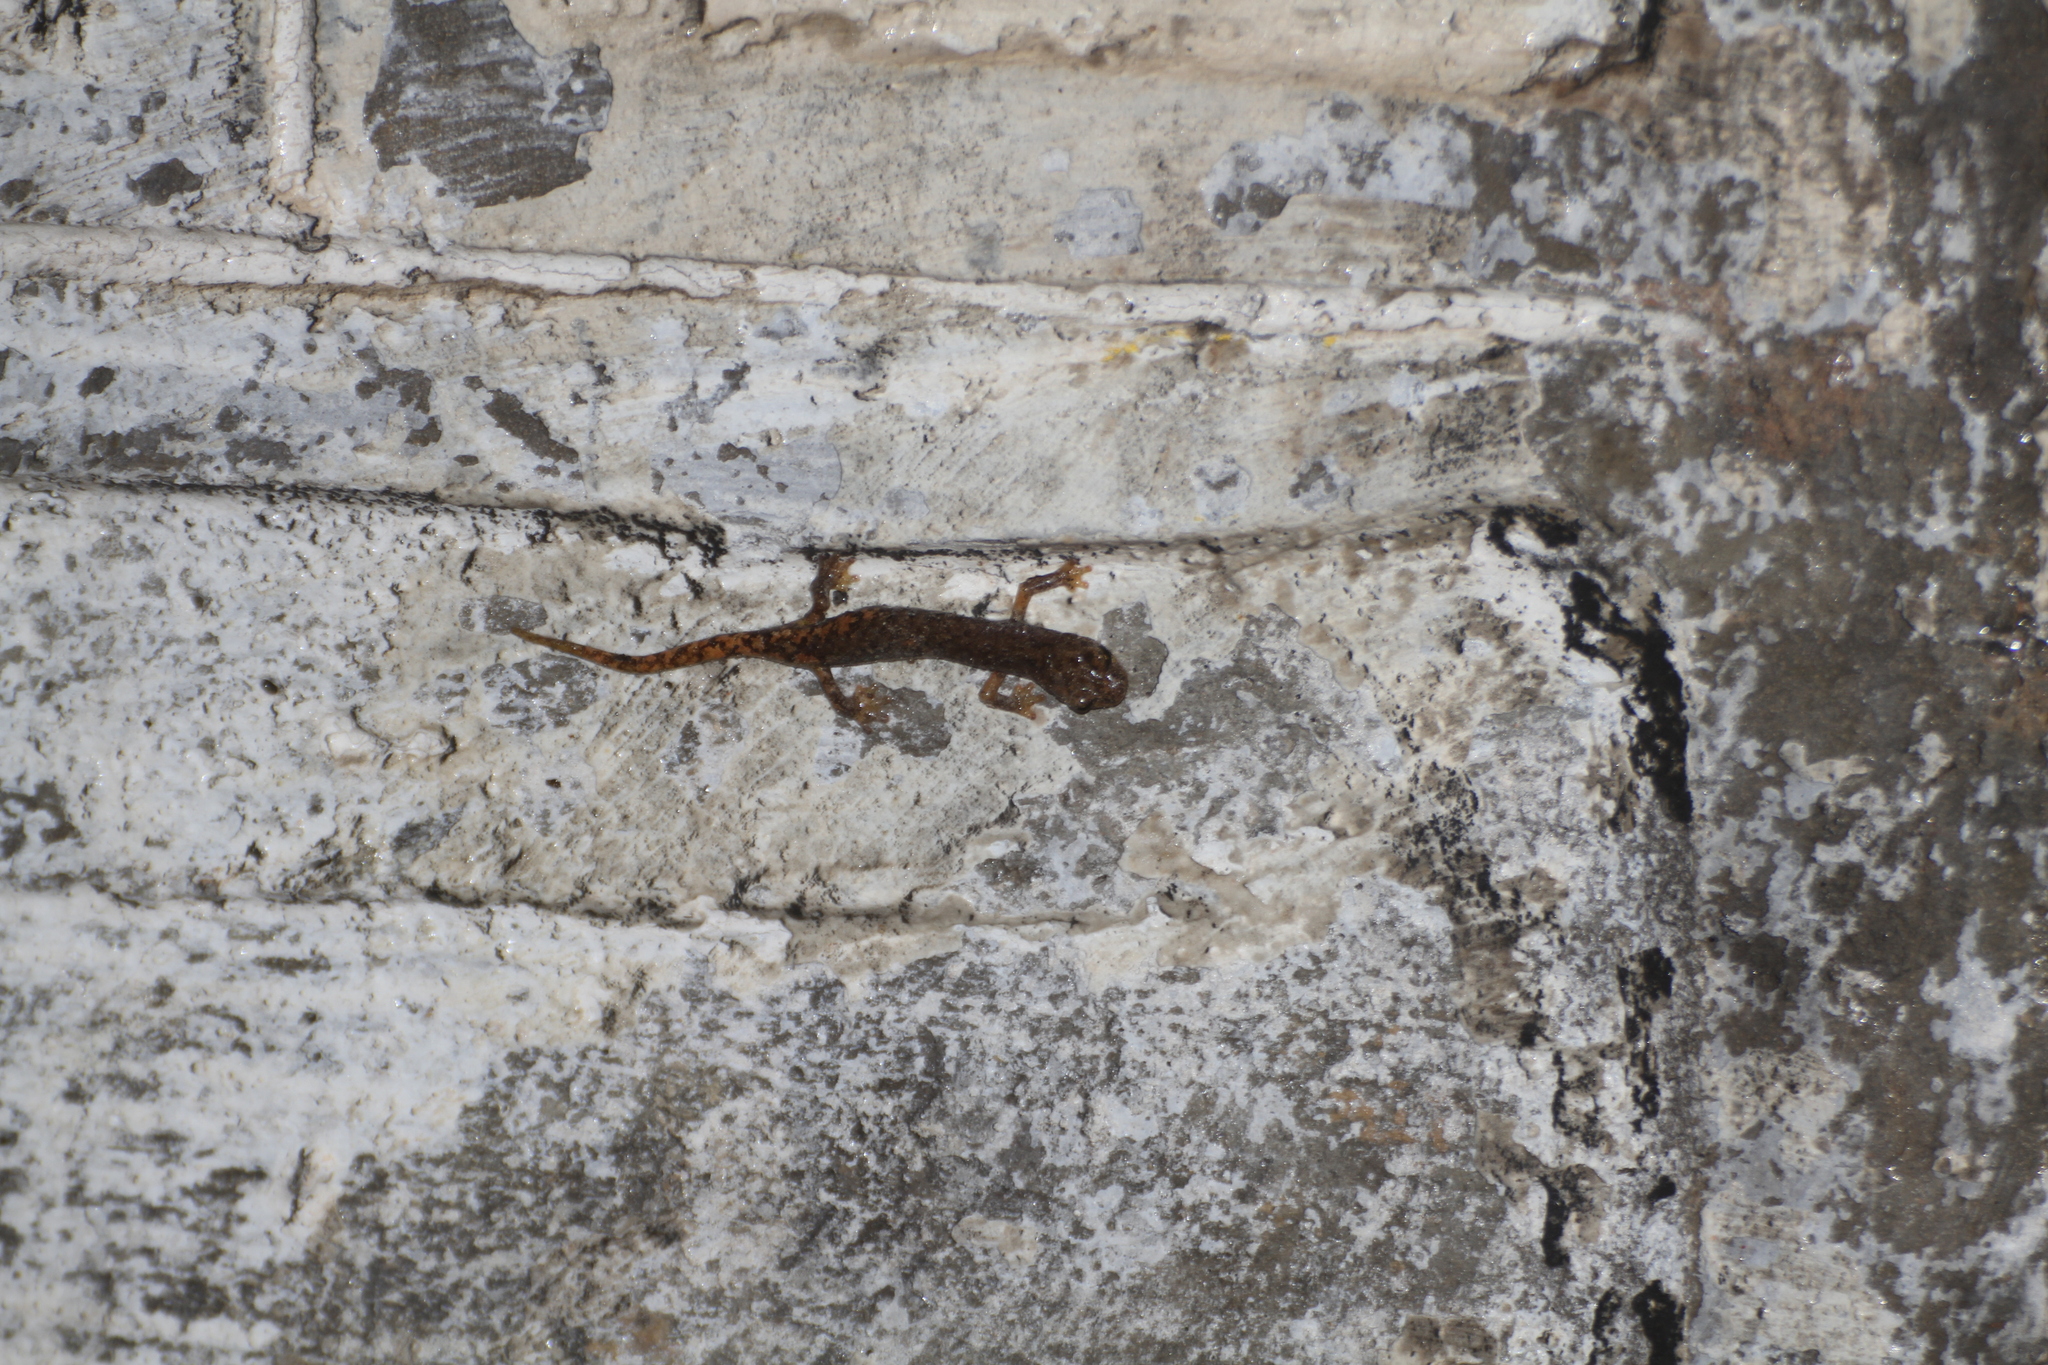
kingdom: Animalia
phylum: Chordata
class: Amphibia
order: Caudata
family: Plethodontidae
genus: Speleomantes
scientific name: Speleomantes strinatii
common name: French cave salamander
